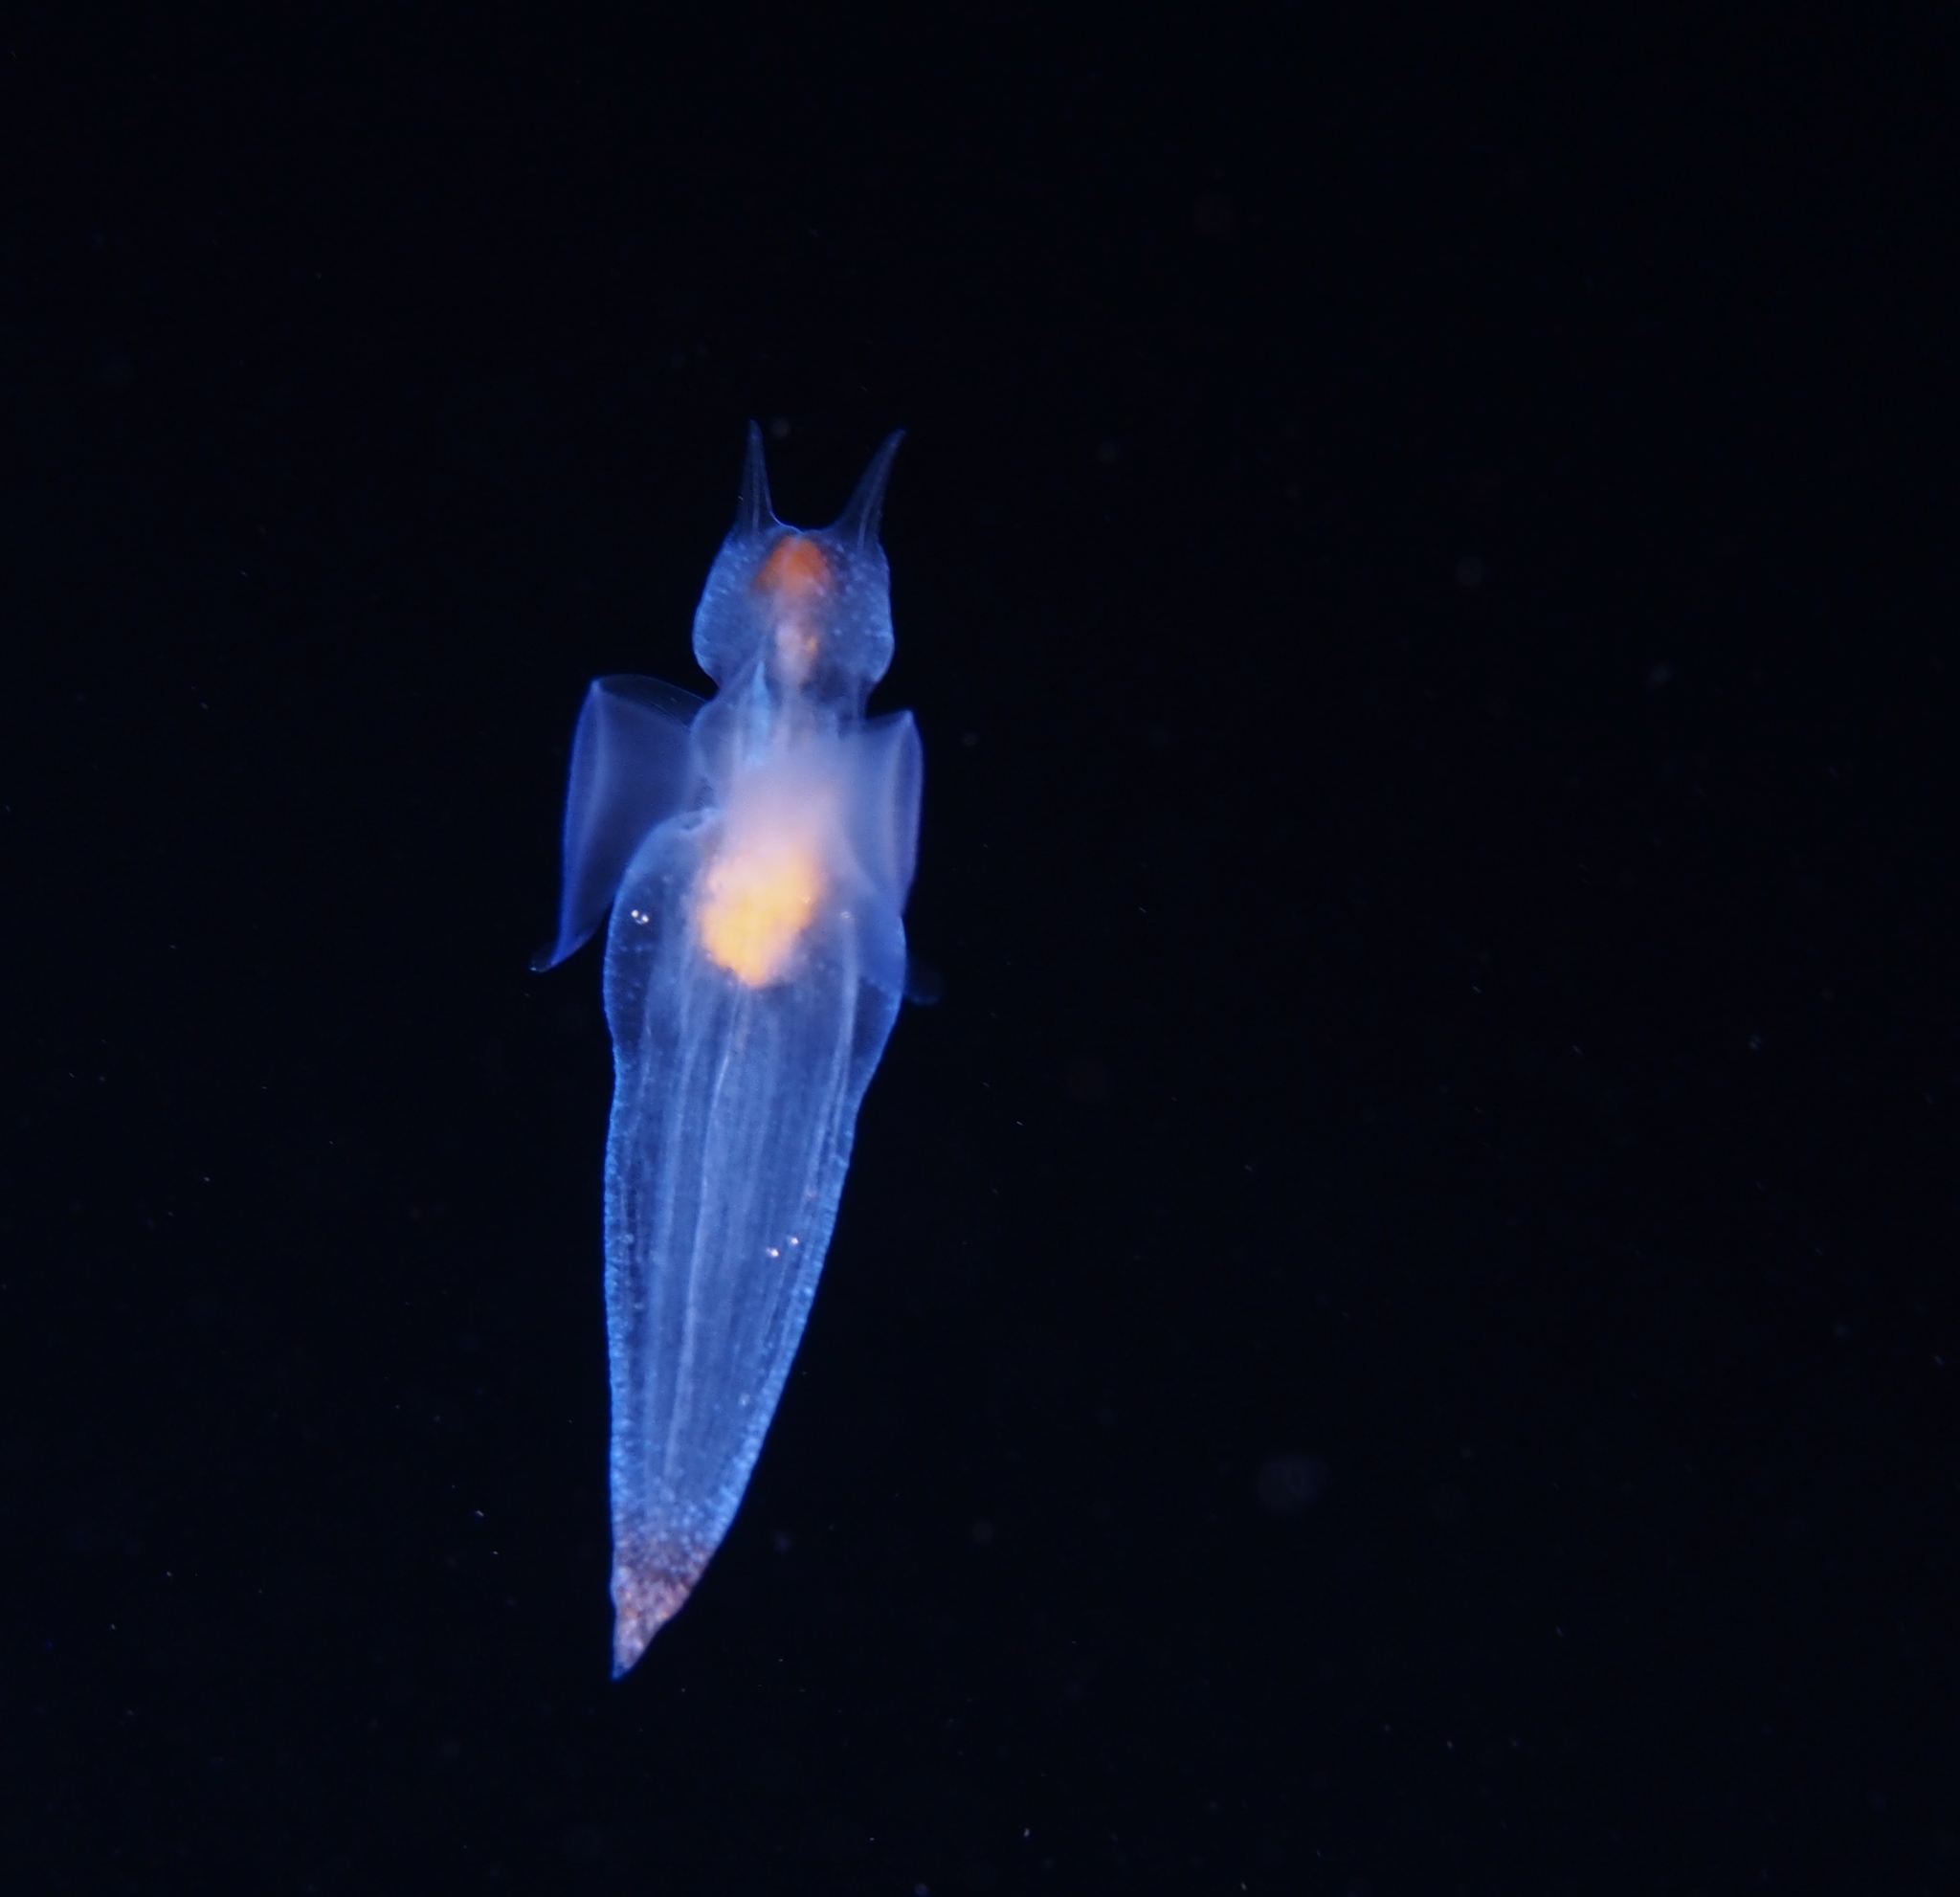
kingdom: Animalia
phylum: Mollusca
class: Gastropoda
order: Pteropoda
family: Clionidae
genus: Clione
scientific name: Clione limacina
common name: Common clione
